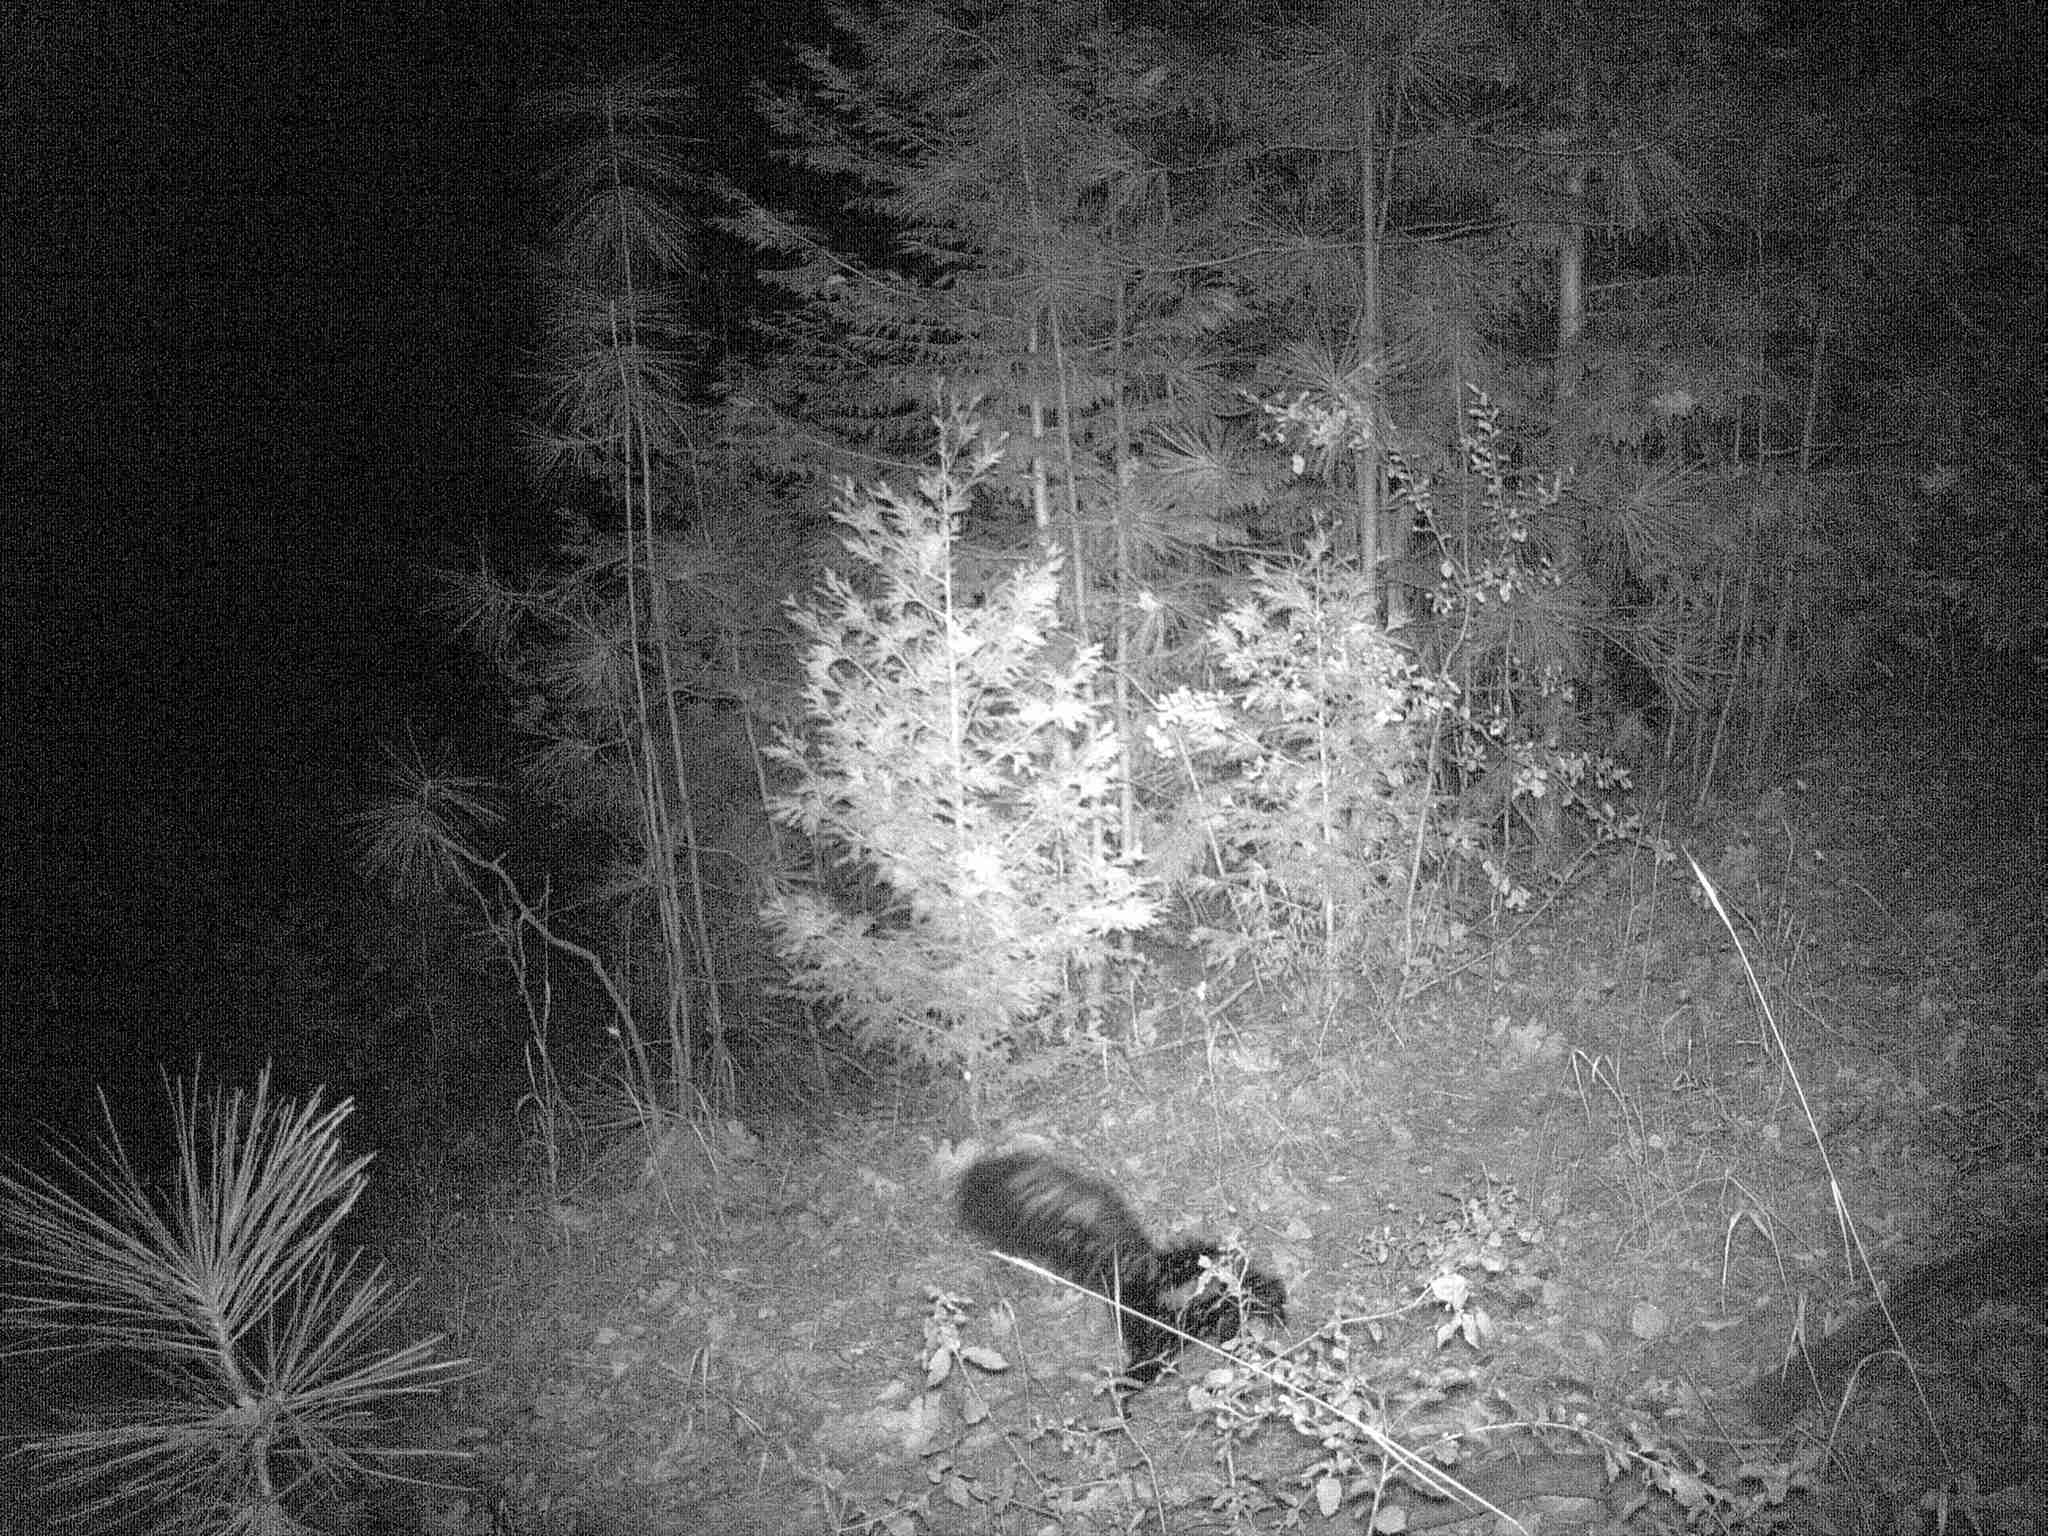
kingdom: Animalia
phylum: Chordata
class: Mammalia
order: Carnivora
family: Mephitidae
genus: Mephitis
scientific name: Mephitis mephitis
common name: Striped skunk
